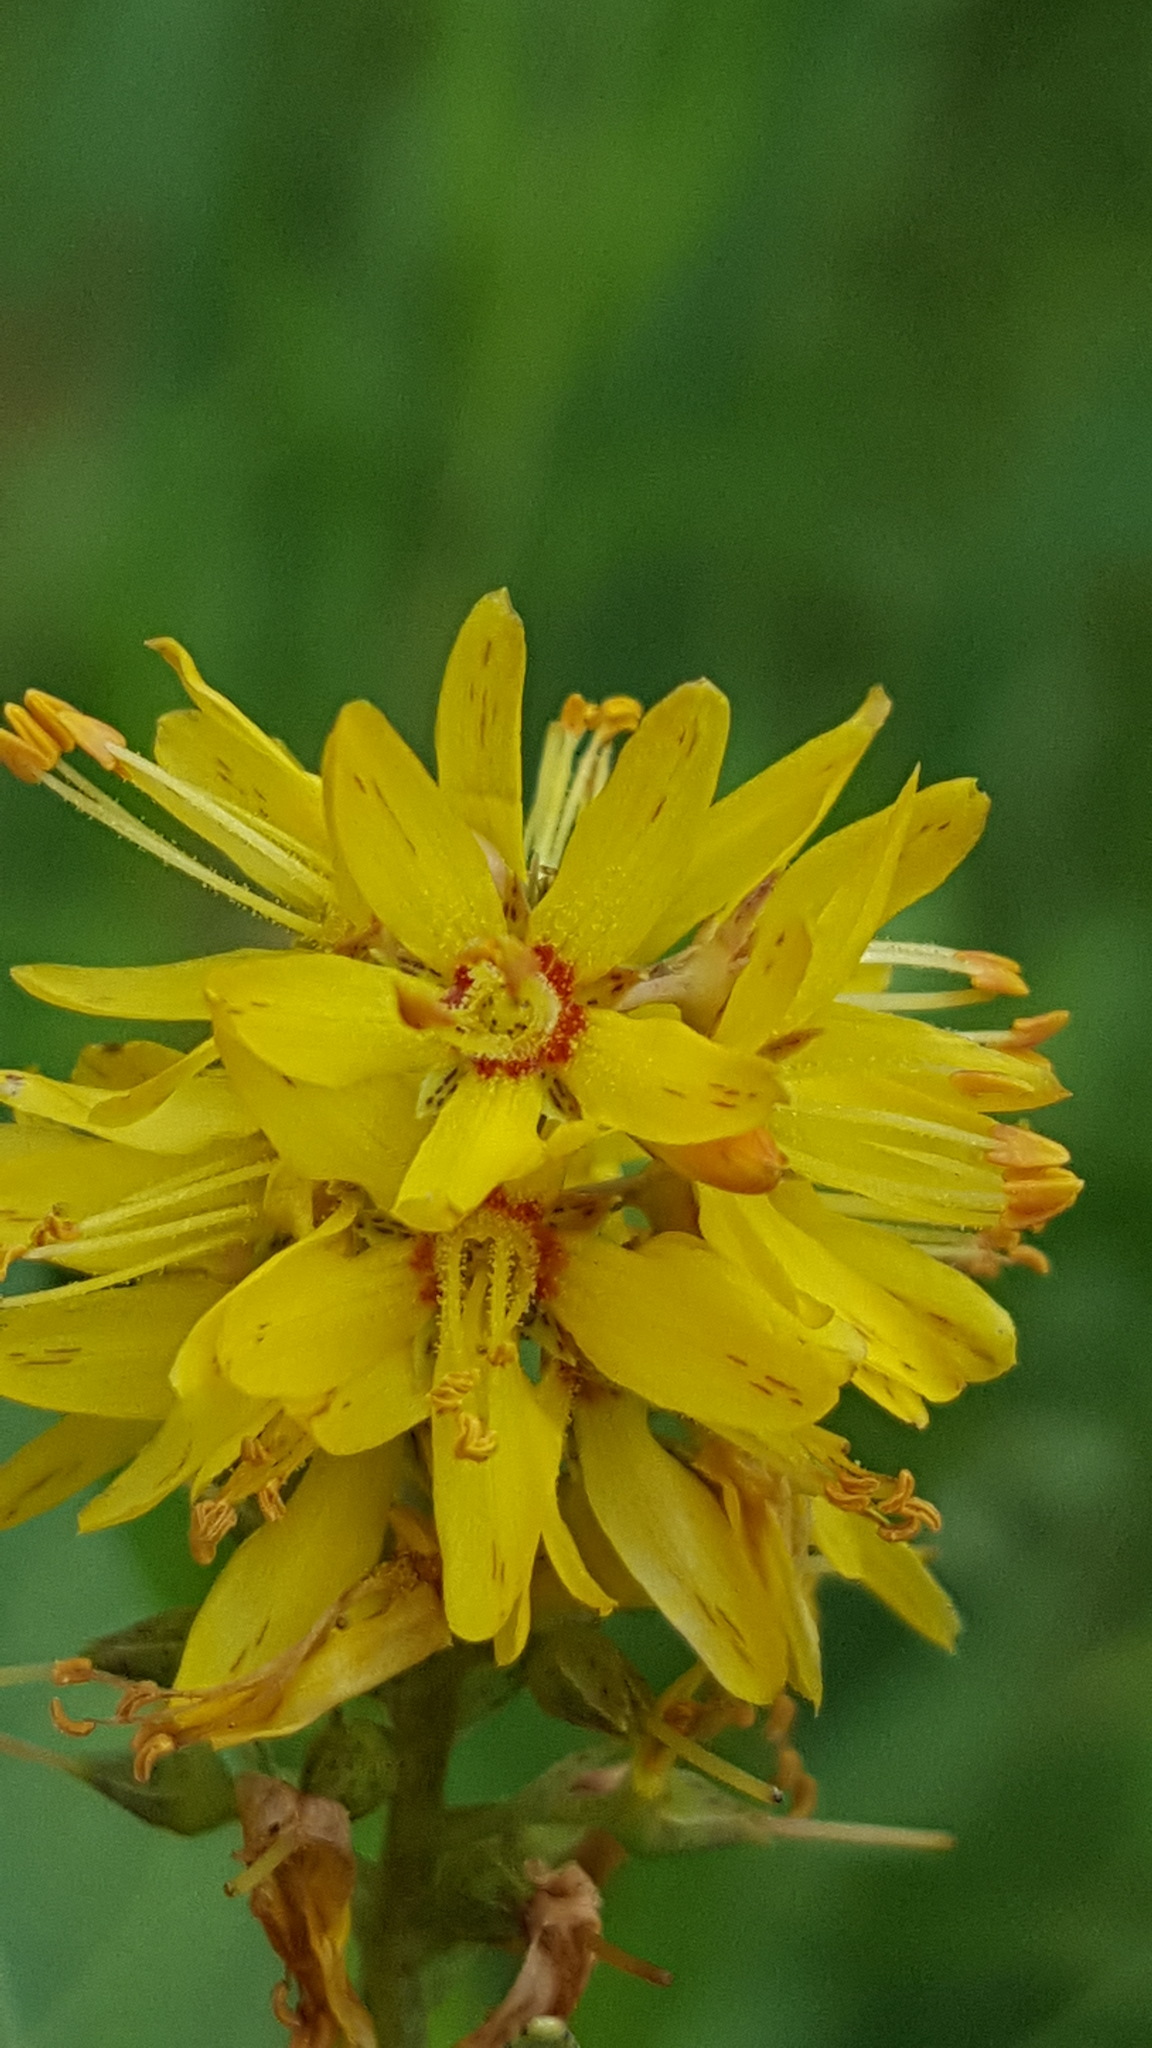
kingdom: Plantae
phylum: Tracheophyta
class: Magnoliopsida
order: Ericales
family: Primulaceae
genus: Lysimachia
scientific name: Lysimachia terrestris
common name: Lake loosestrife
